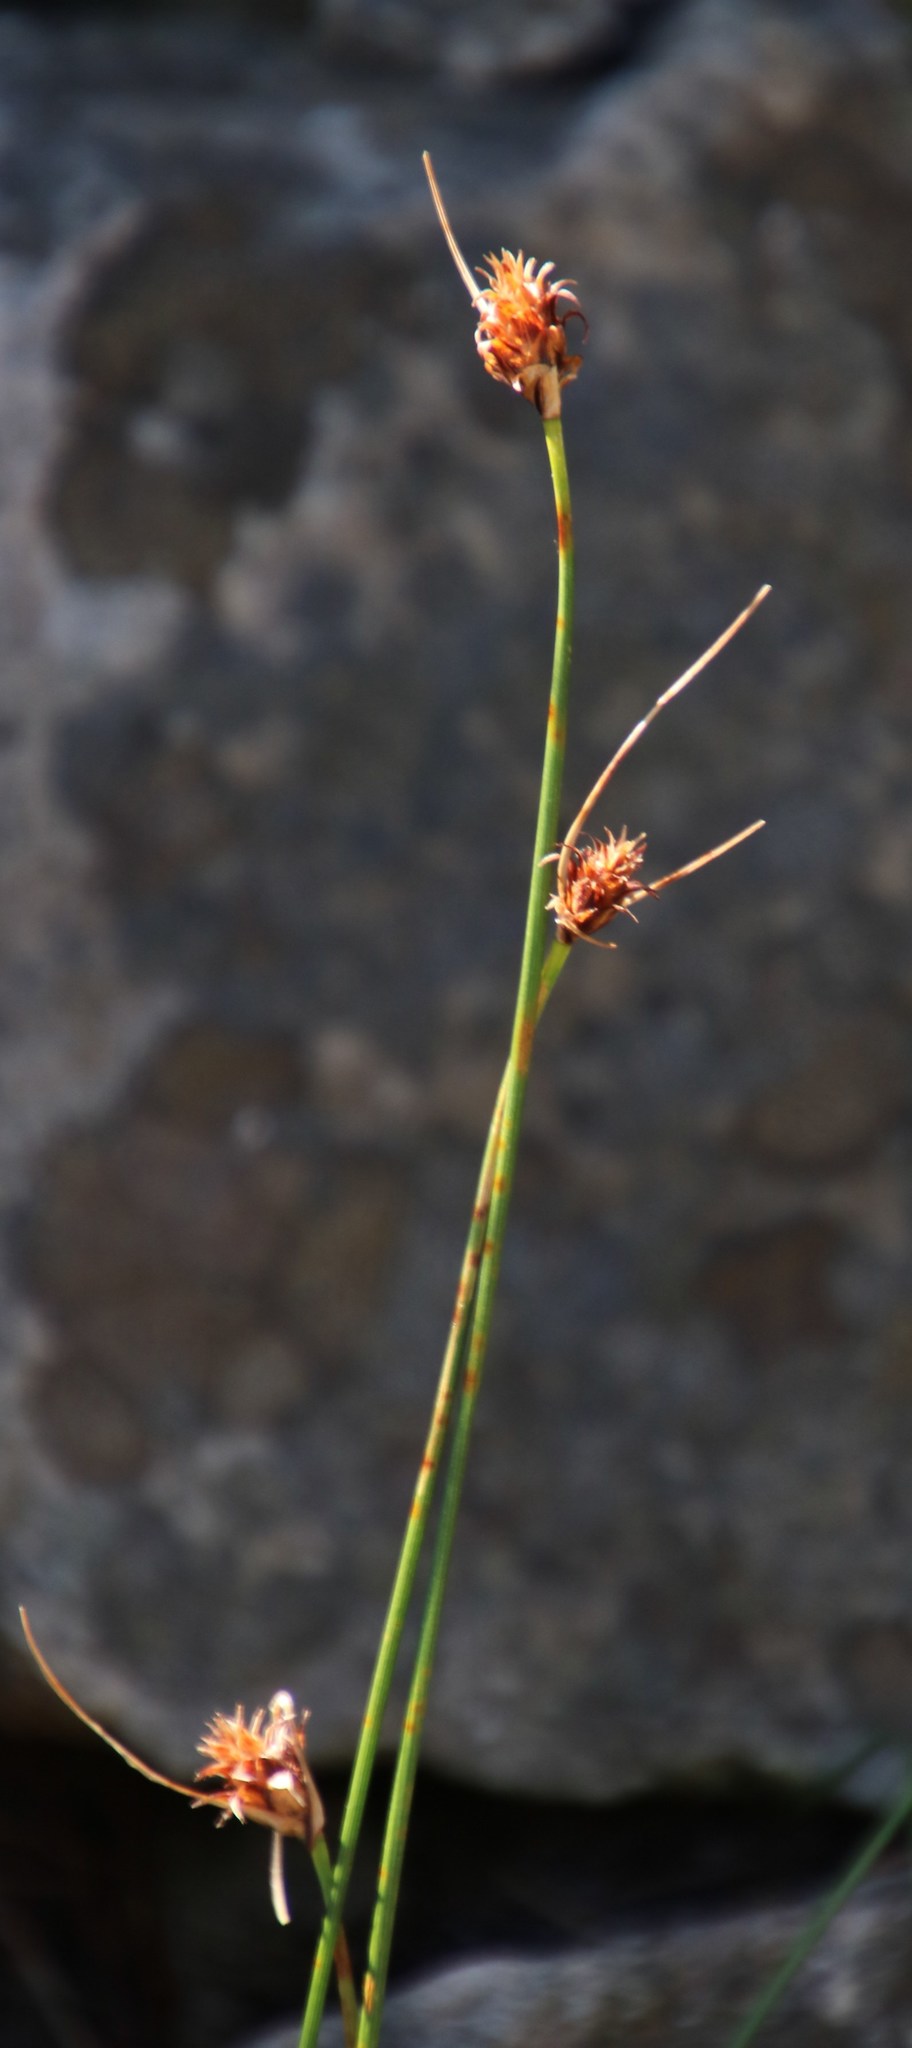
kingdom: Plantae
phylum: Tracheophyta
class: Liliopsida
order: Poales
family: Cyperaceae
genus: Ficinia
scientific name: Ficinia nigrescens
